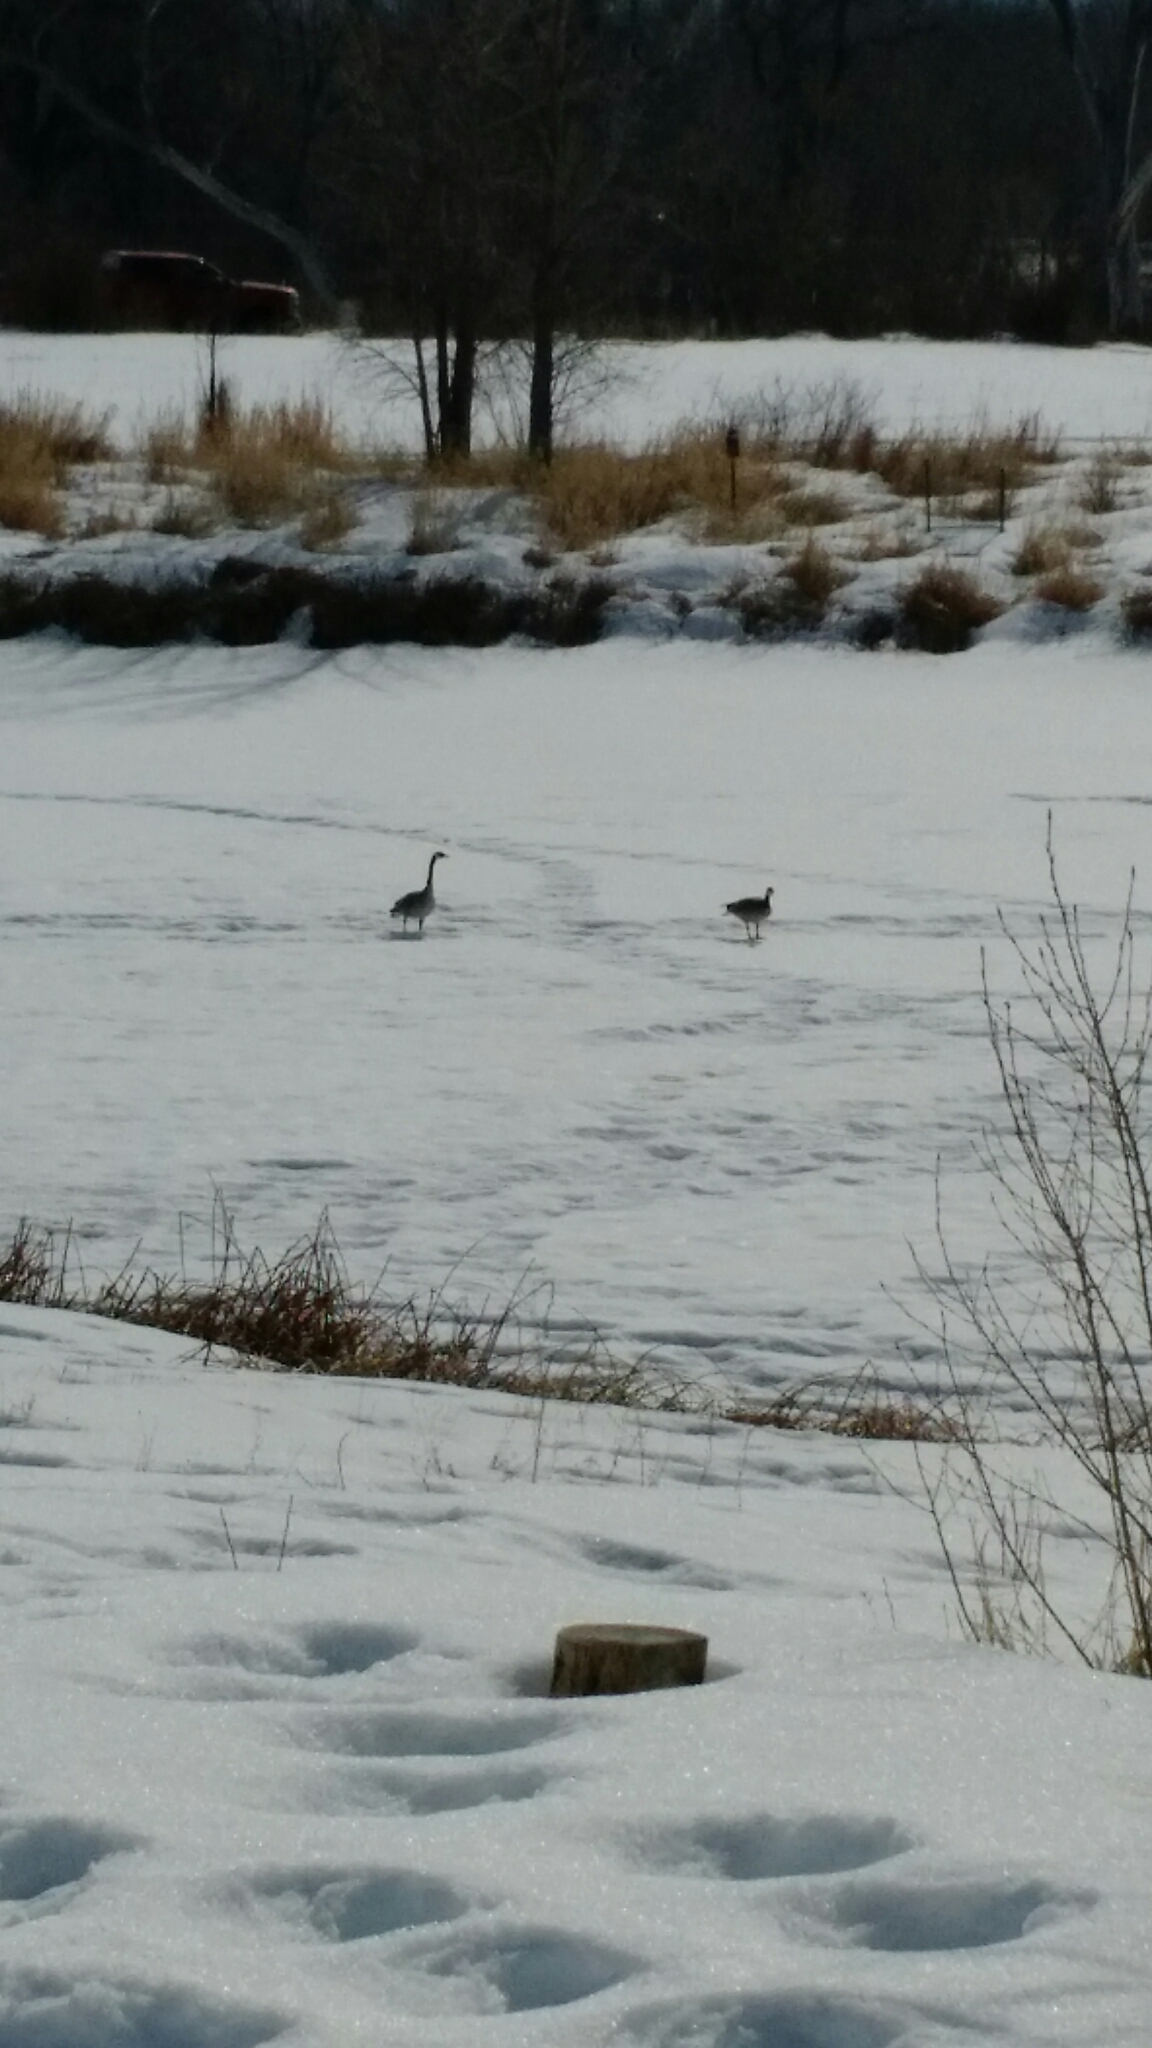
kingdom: Animalia
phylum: Chordata
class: Aves
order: Anseriformes
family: Anatidae
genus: Branta
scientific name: Branta canadensis
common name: Canada goose
